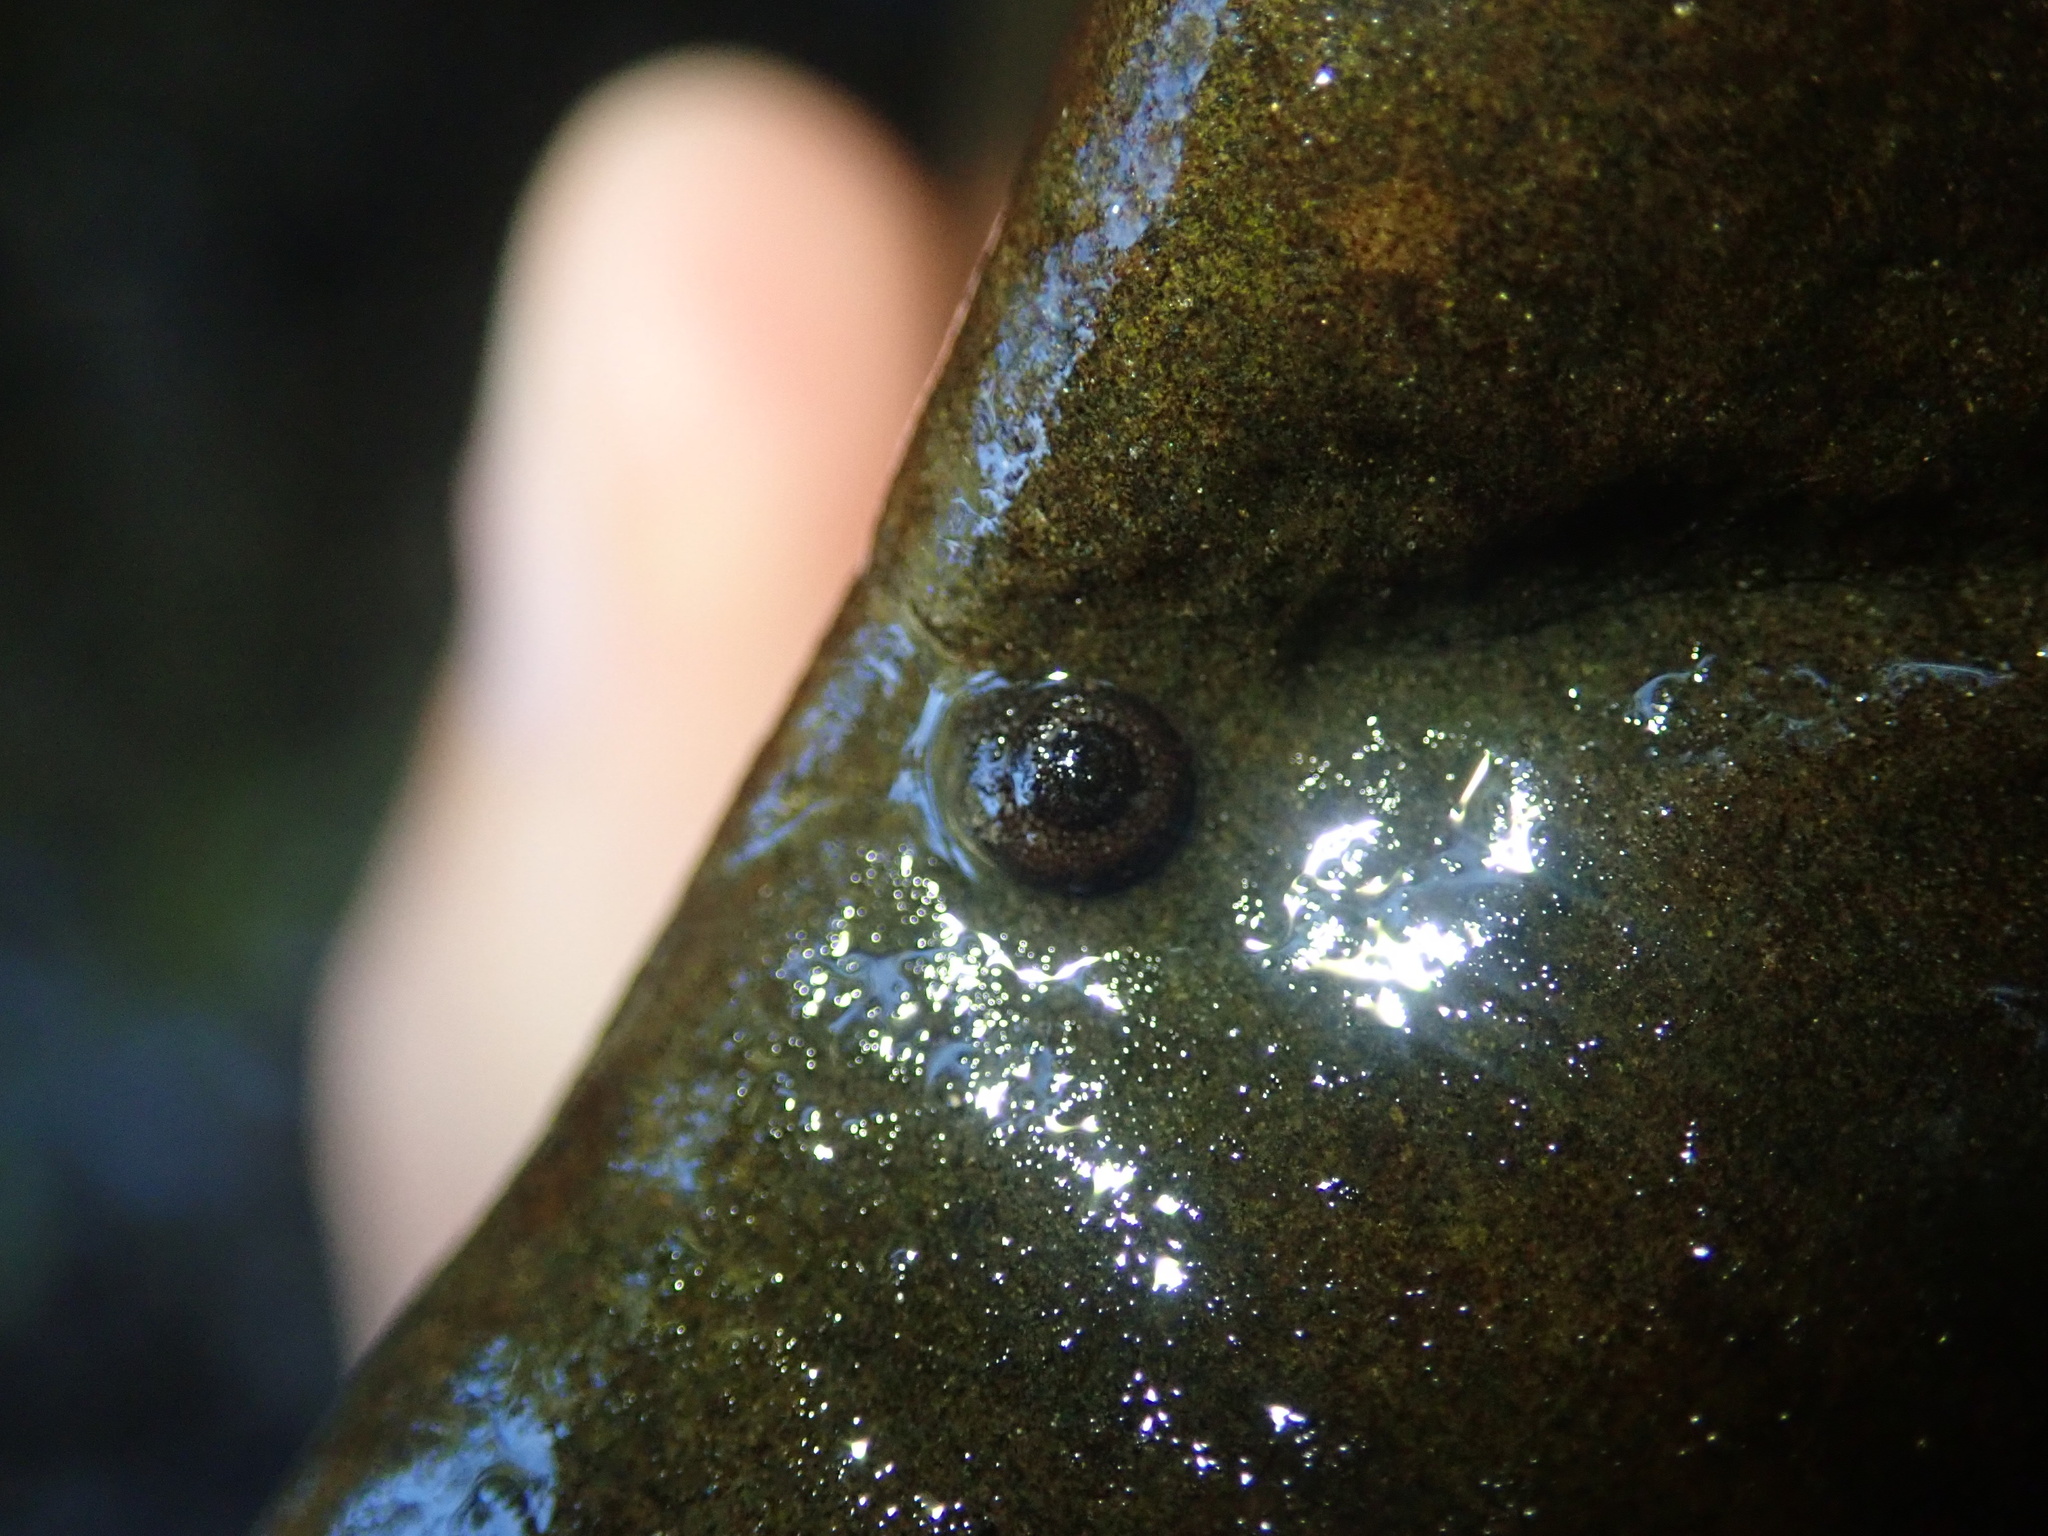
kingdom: Animalia
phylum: Arthropoda
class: Insecta
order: Trichoptera
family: Helicopsychidae
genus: Helicopsyche
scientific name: Helicopsyche
